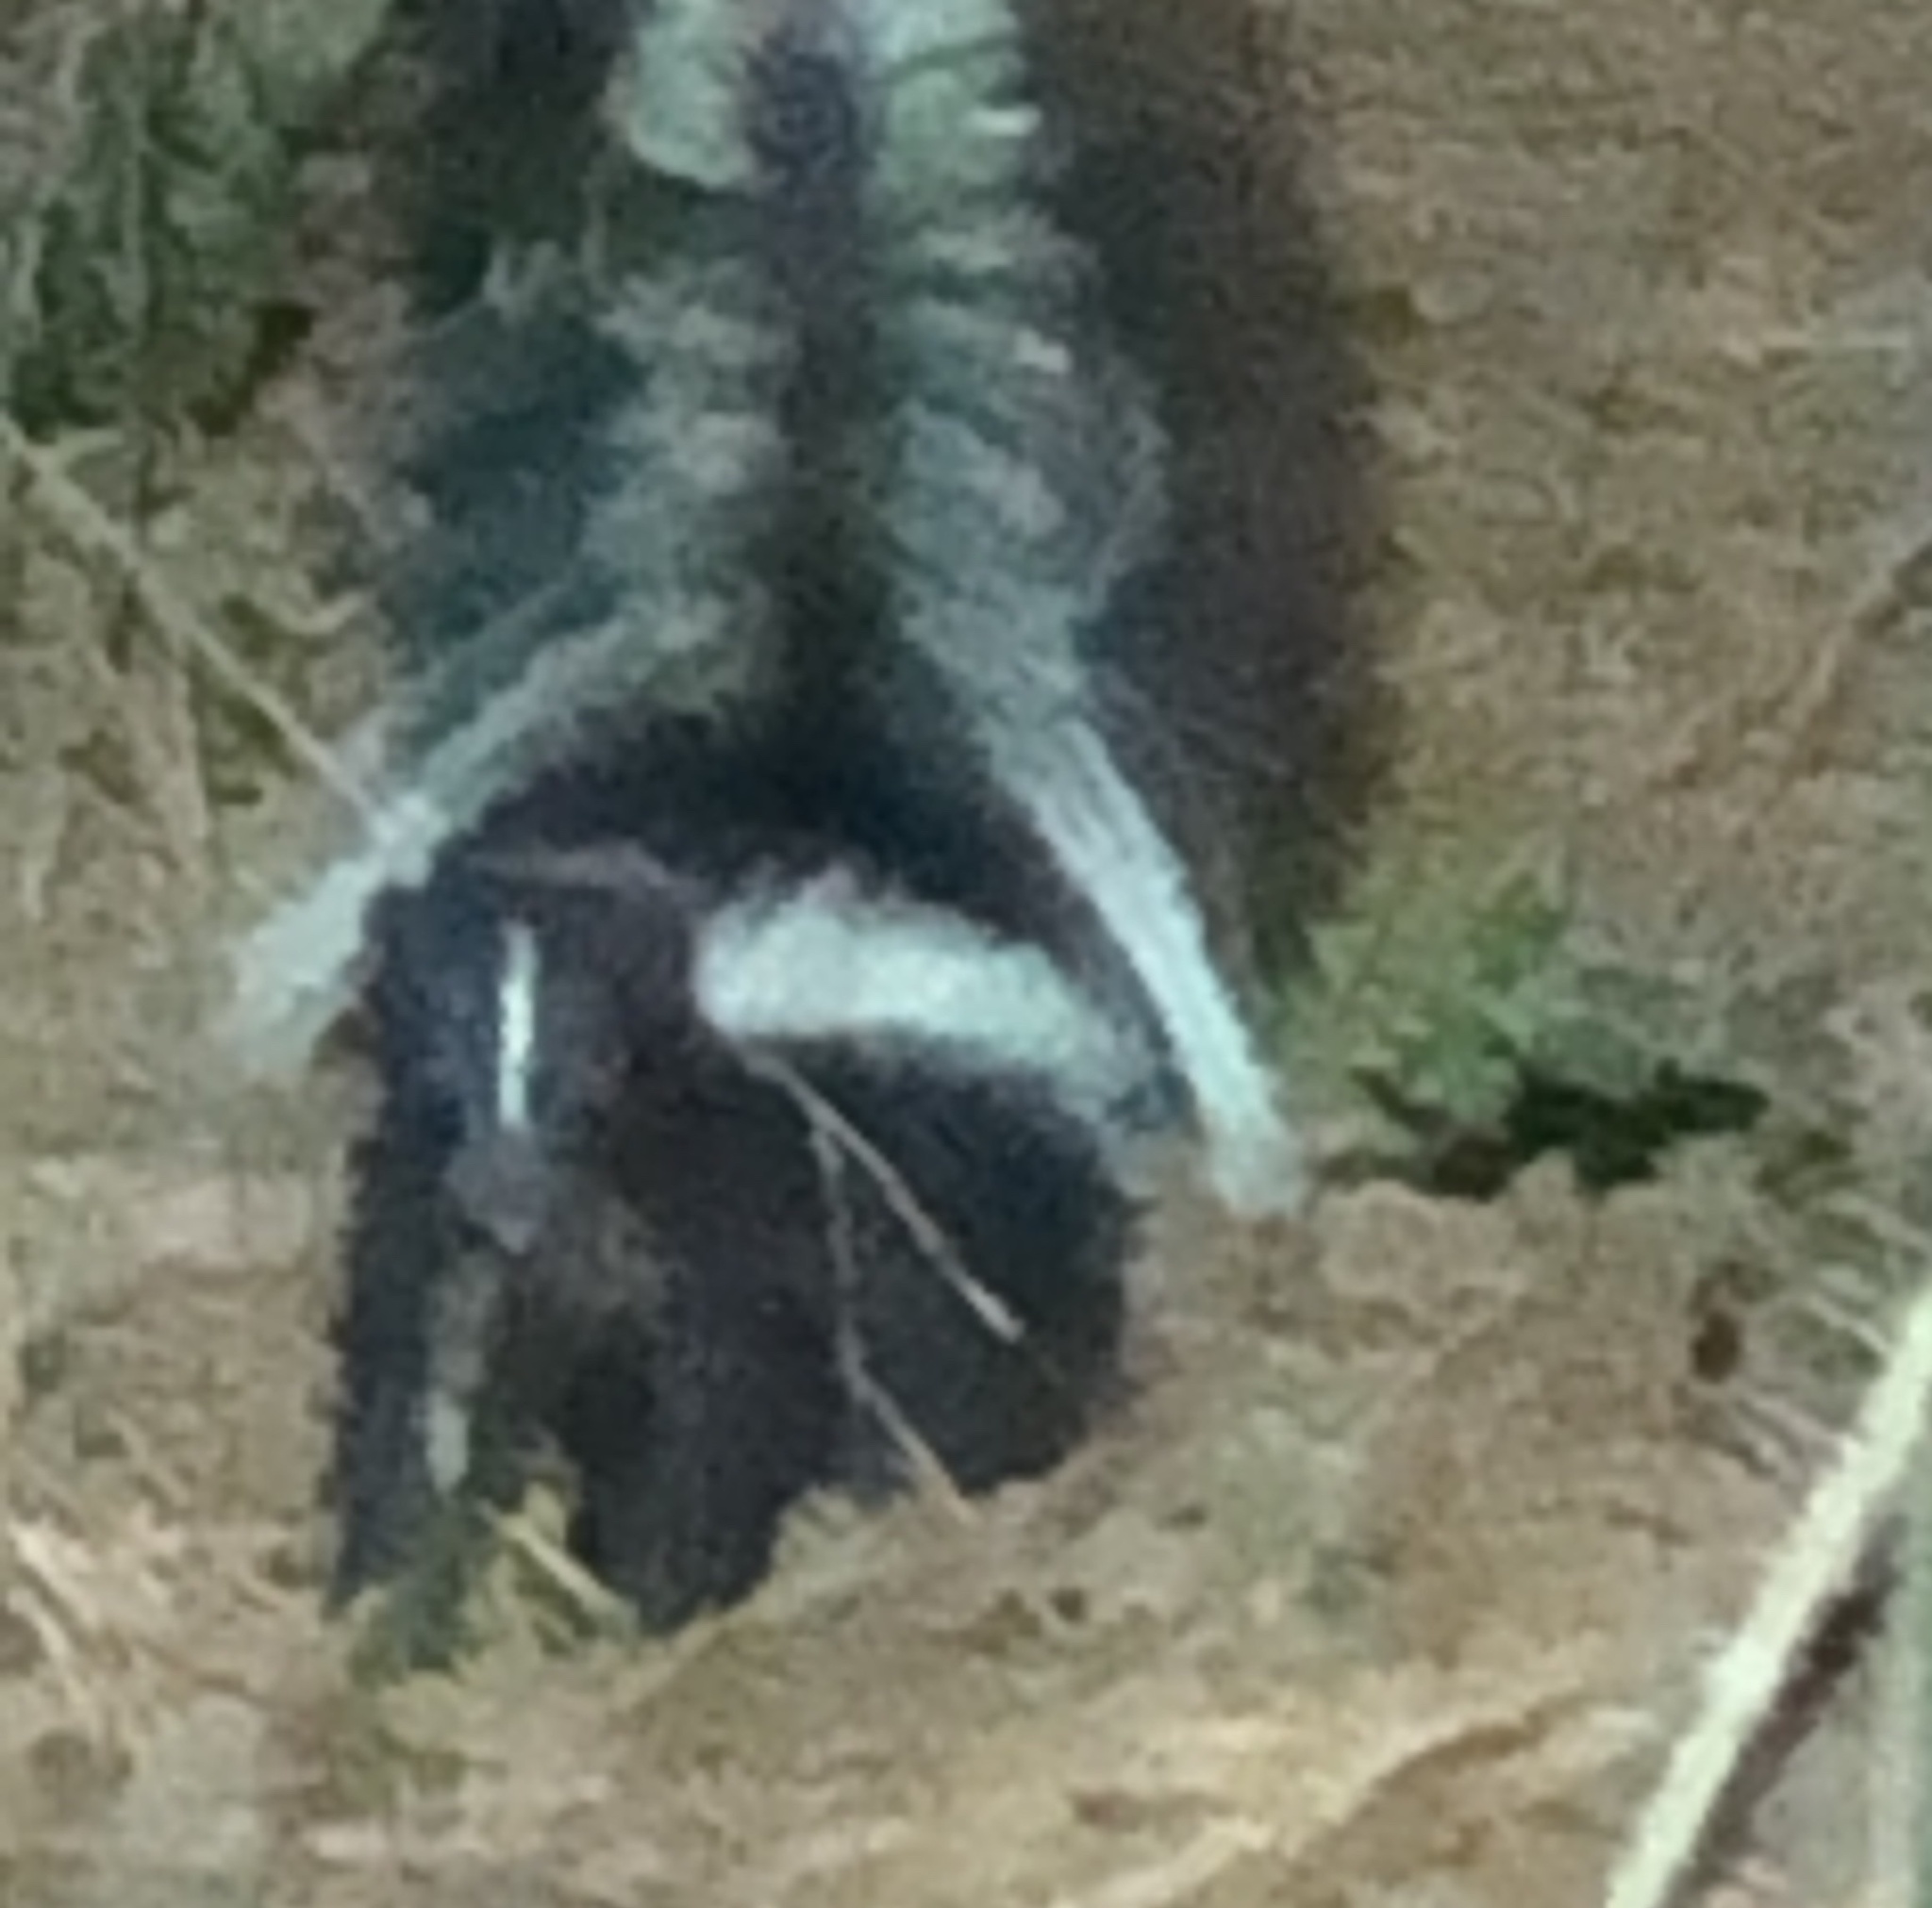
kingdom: Animalia
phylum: Chordata
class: Mammalia
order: Carnivora
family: Mephitidae
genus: Mephitis
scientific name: Mephitis mephitis
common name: Striped skunk
